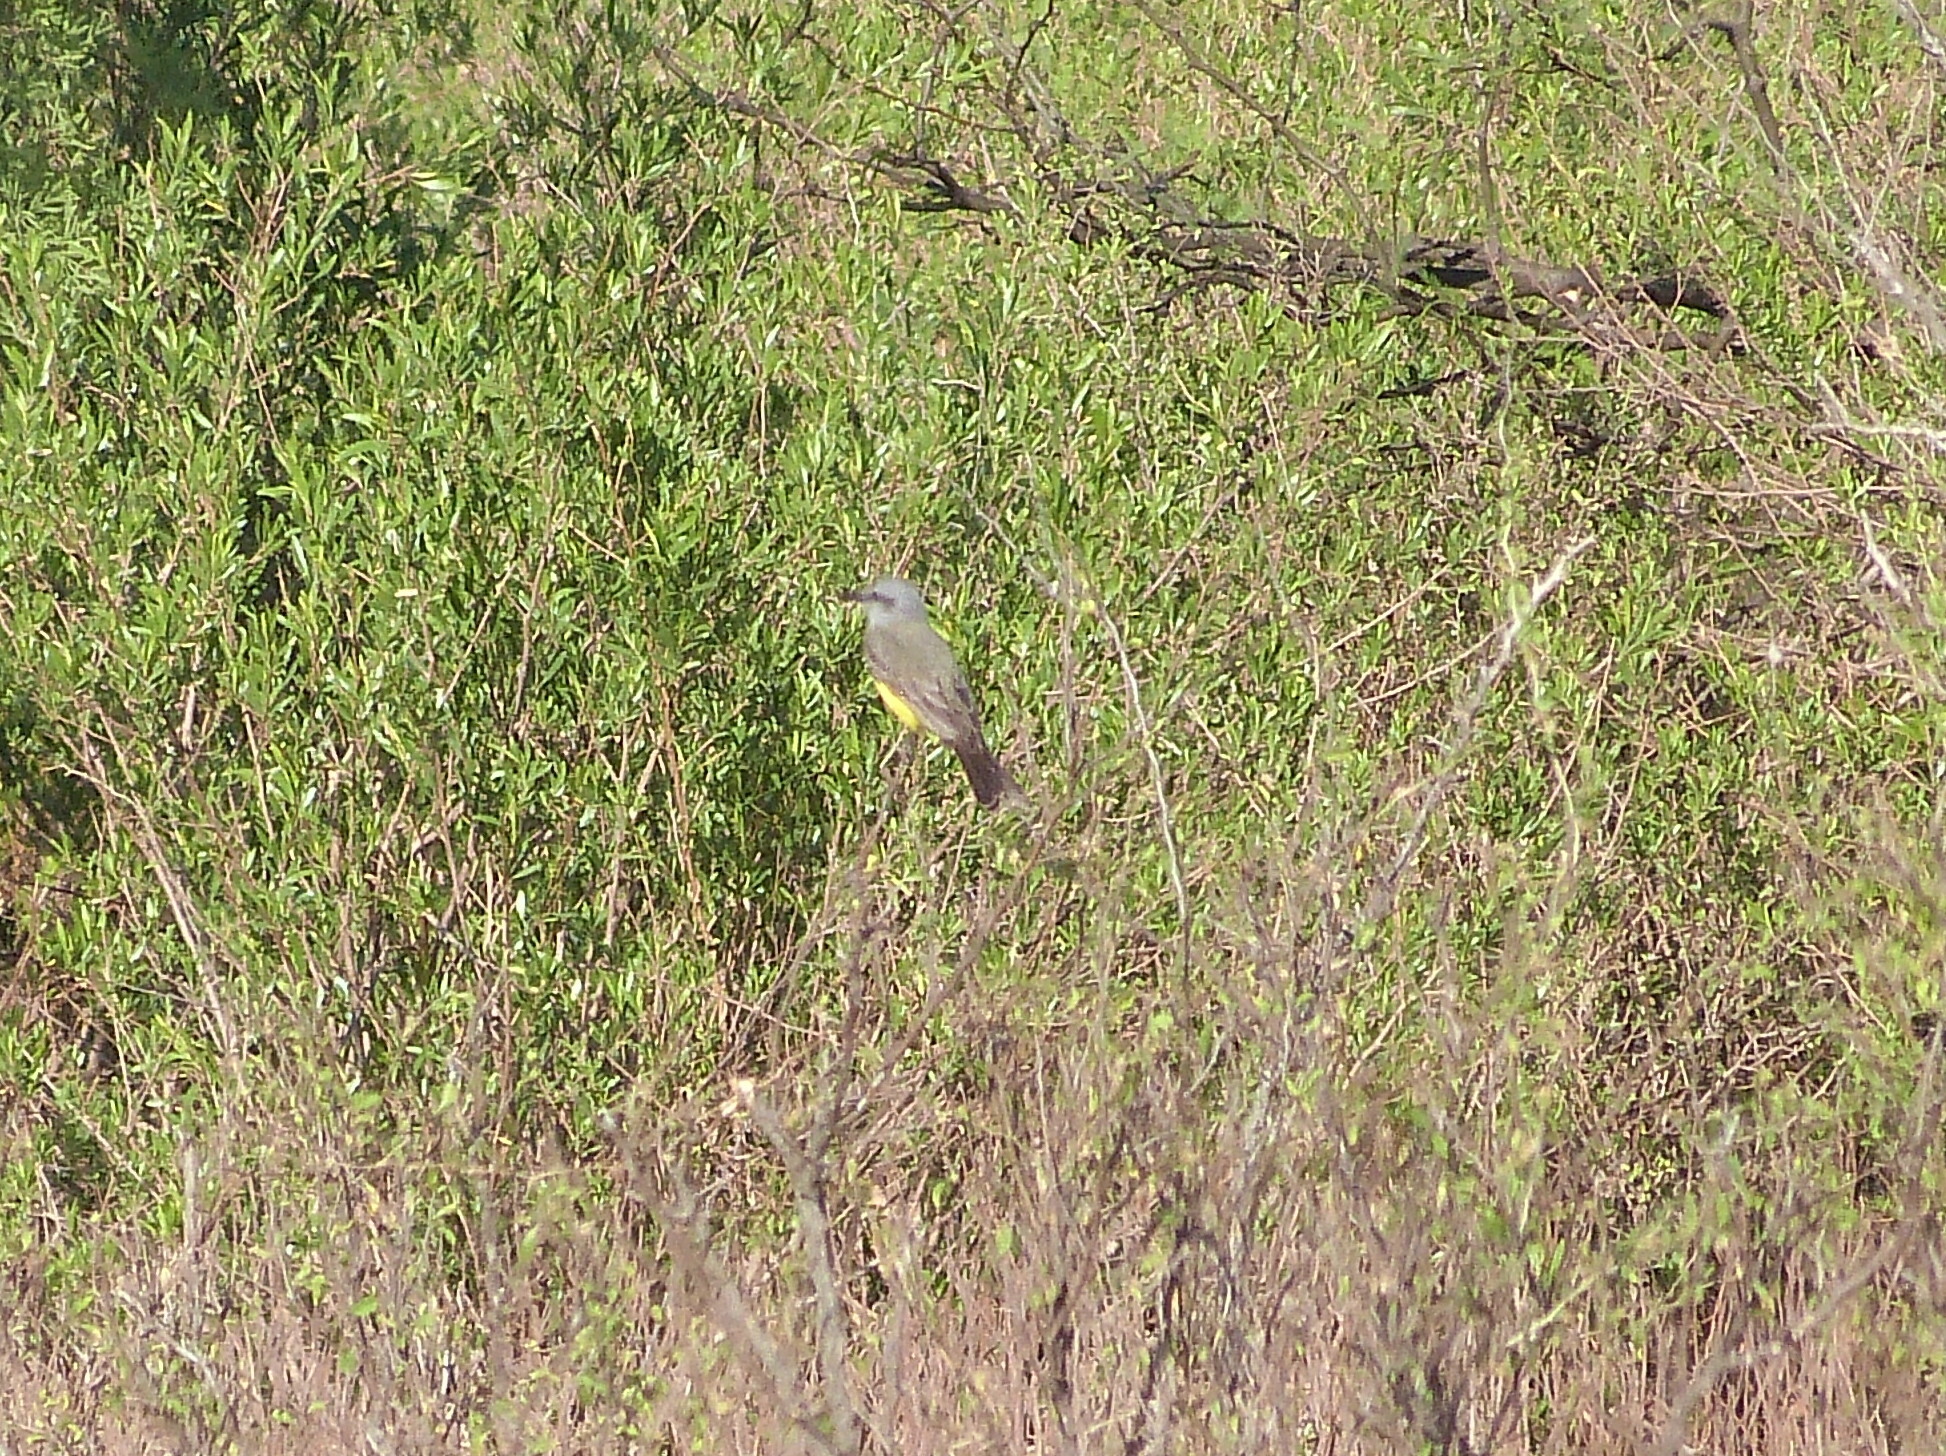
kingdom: Animalia
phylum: Chordata
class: Aves
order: Passeriformes
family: Tyrannidae
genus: Tyrannus
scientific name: Tyrannus melancholicus
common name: Tropical kingbird
